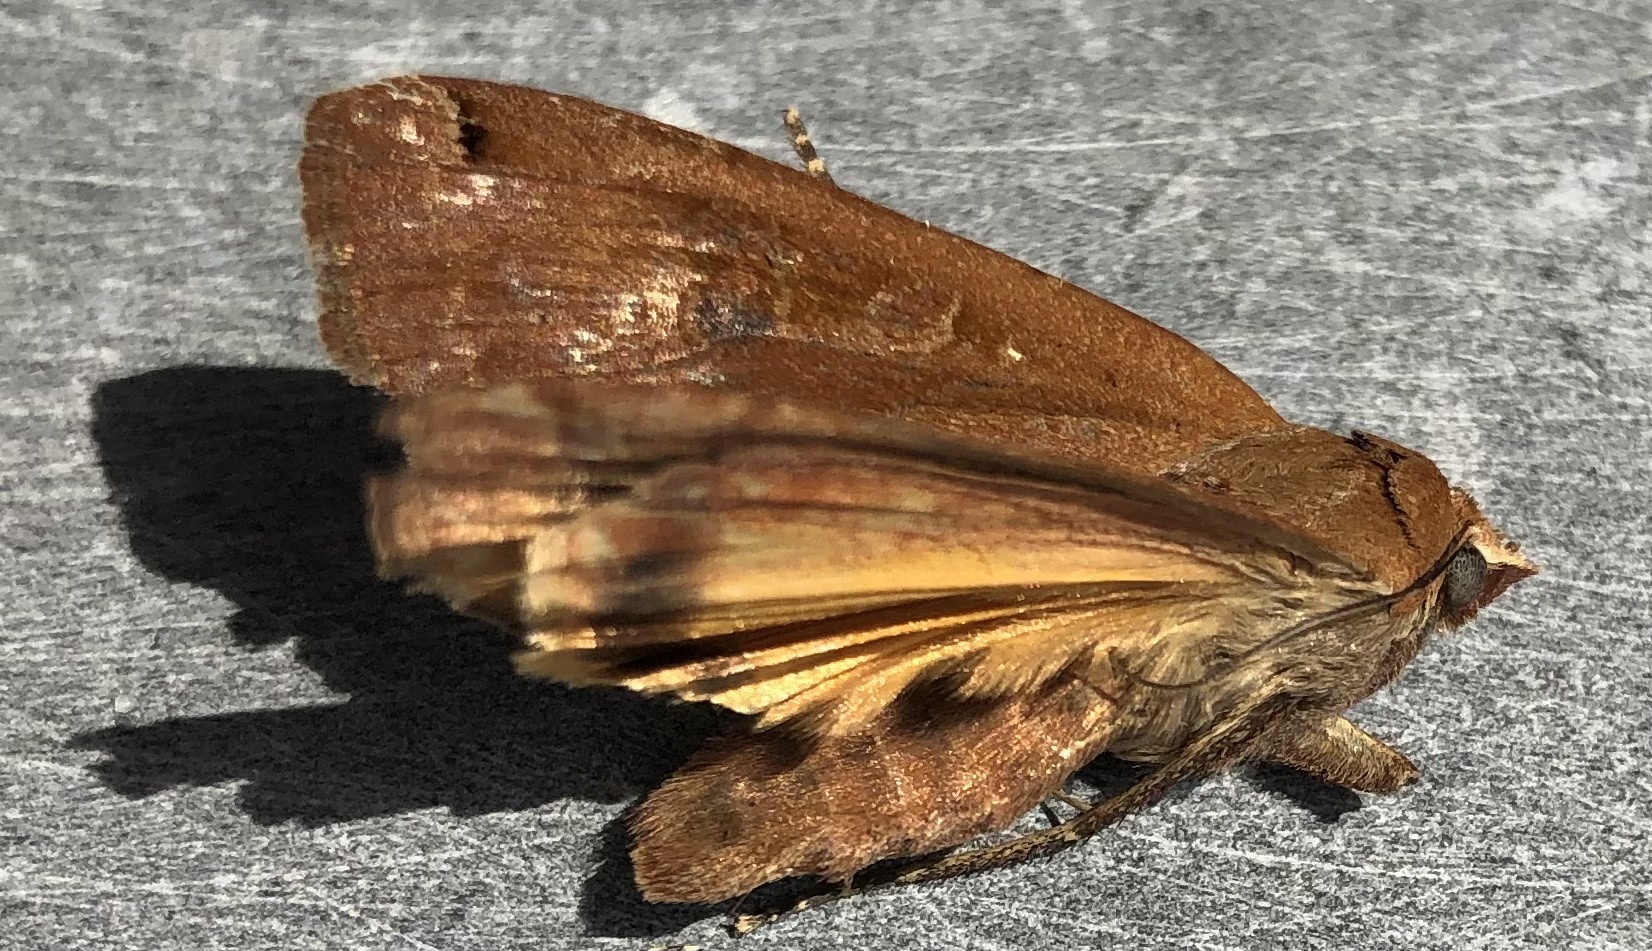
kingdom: Animalia
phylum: Arthropoda
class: Insecta
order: Lepidoptera
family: Noctuidae
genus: Noctua
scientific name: Noctua pronuba
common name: Large yellow underwing
